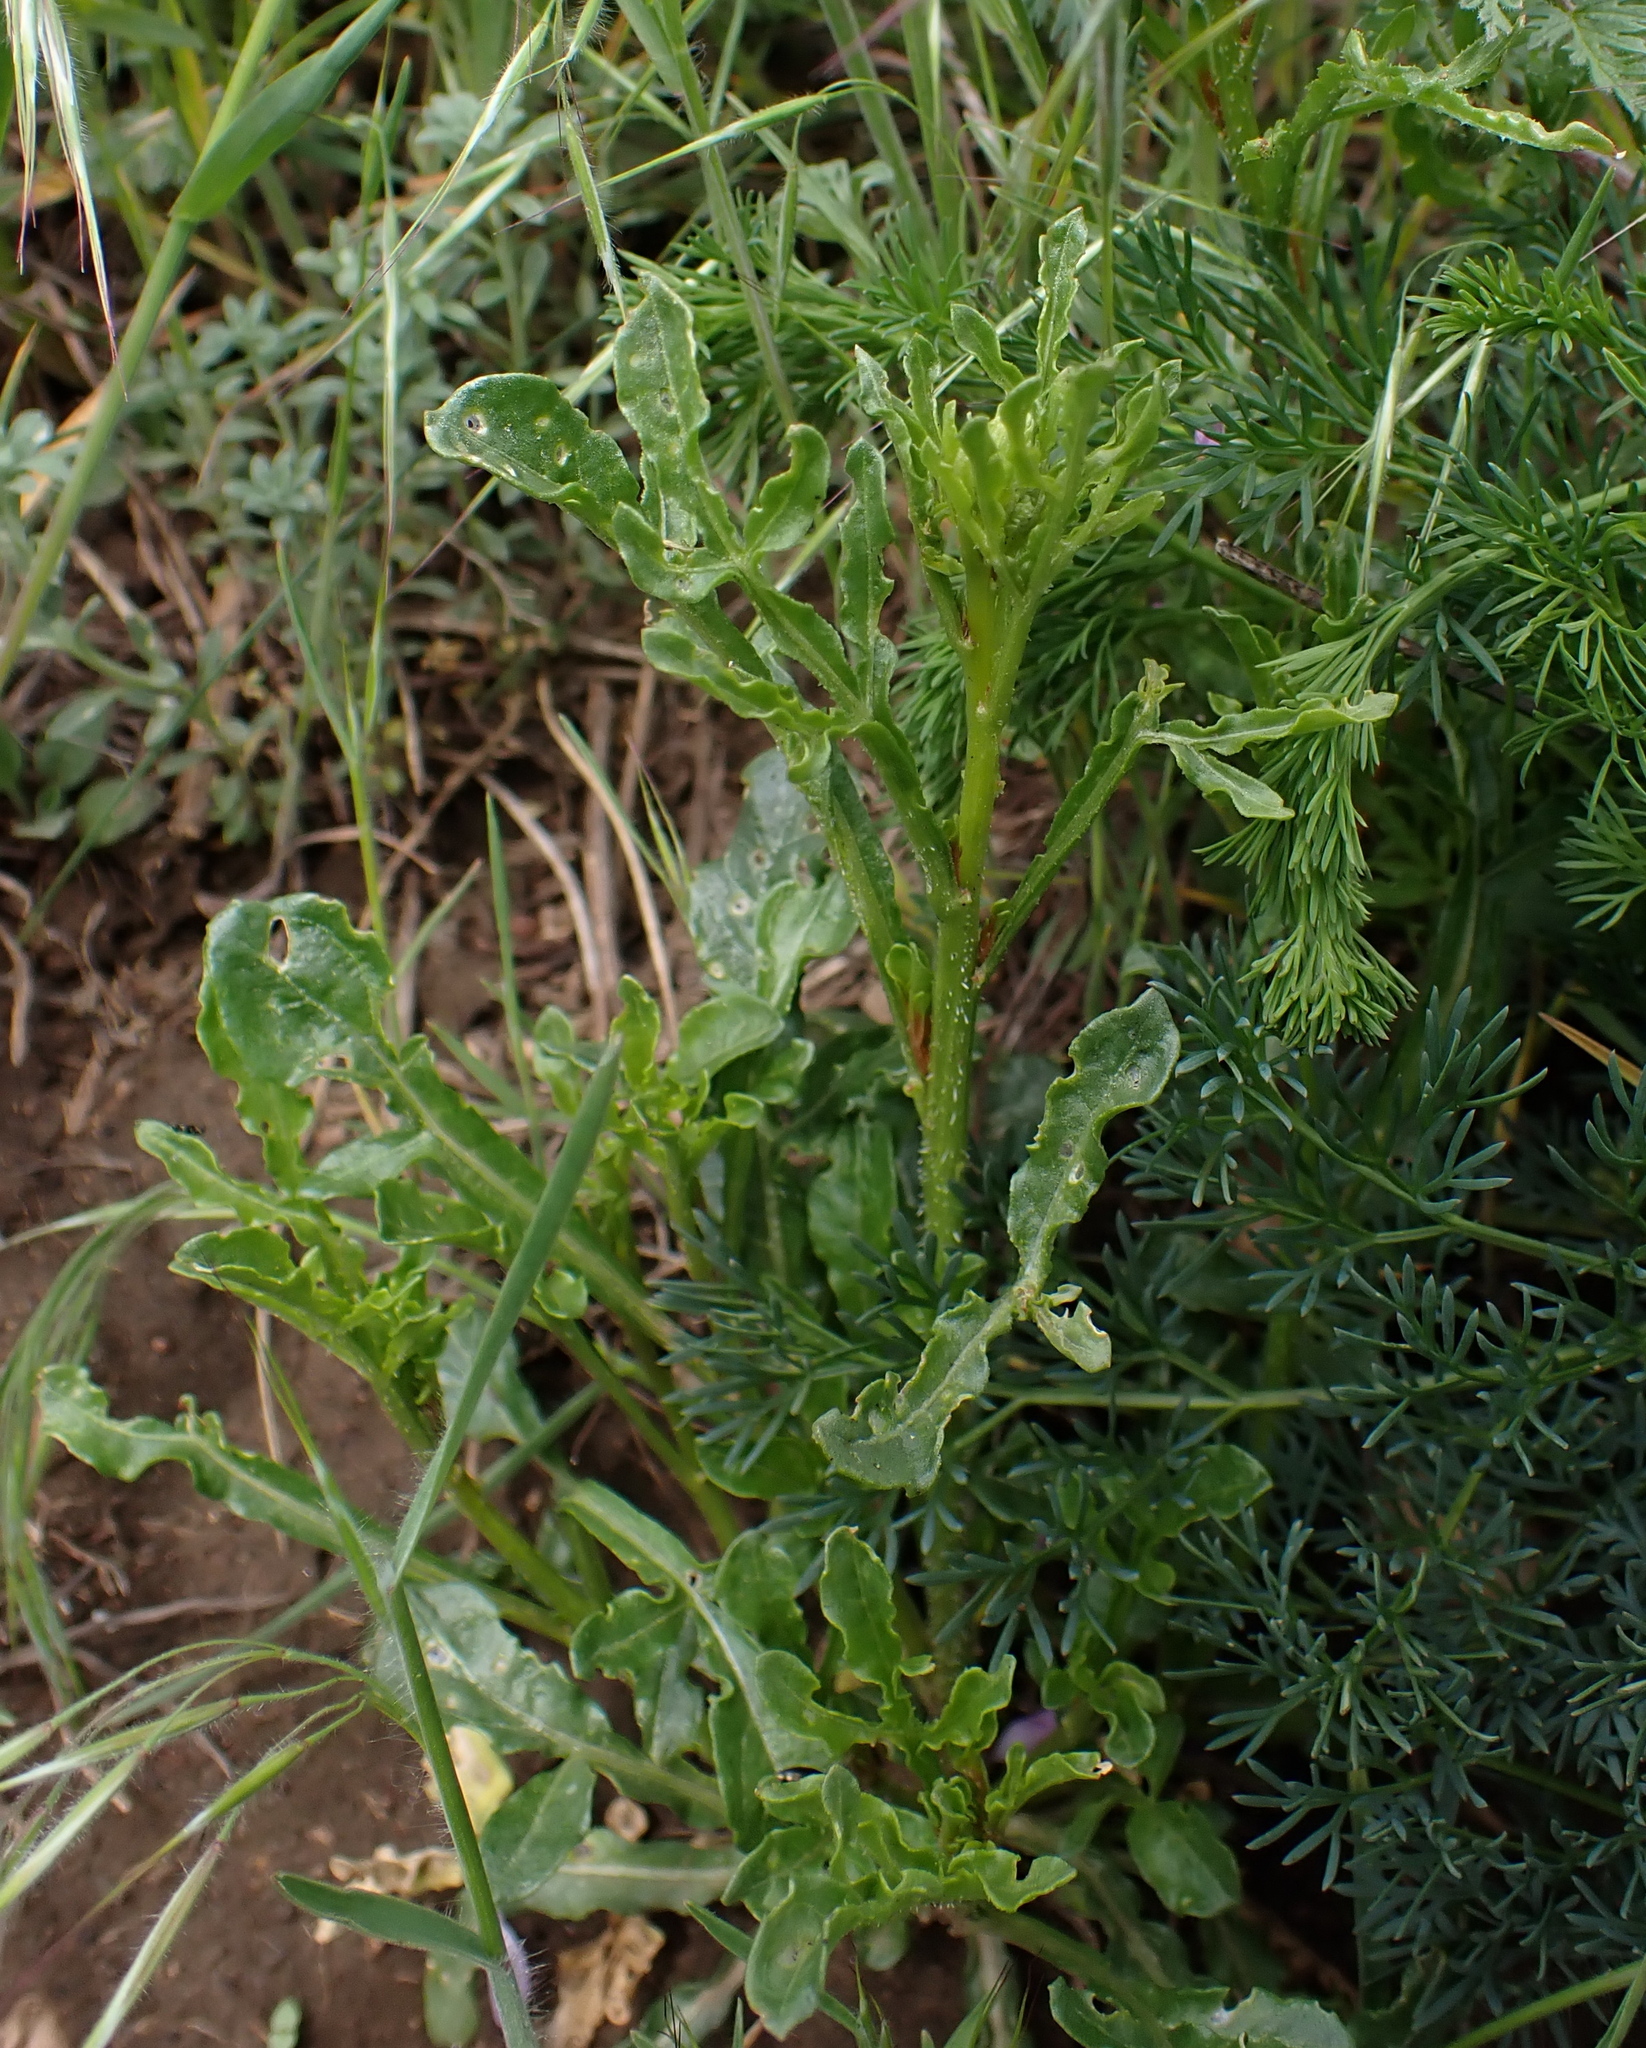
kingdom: Plantae
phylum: Tracheophyta
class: Magnoliopsida
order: Brassicales
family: Resedaceae
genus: Reseda
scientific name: Reseda lutea
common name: Wild mignonette
